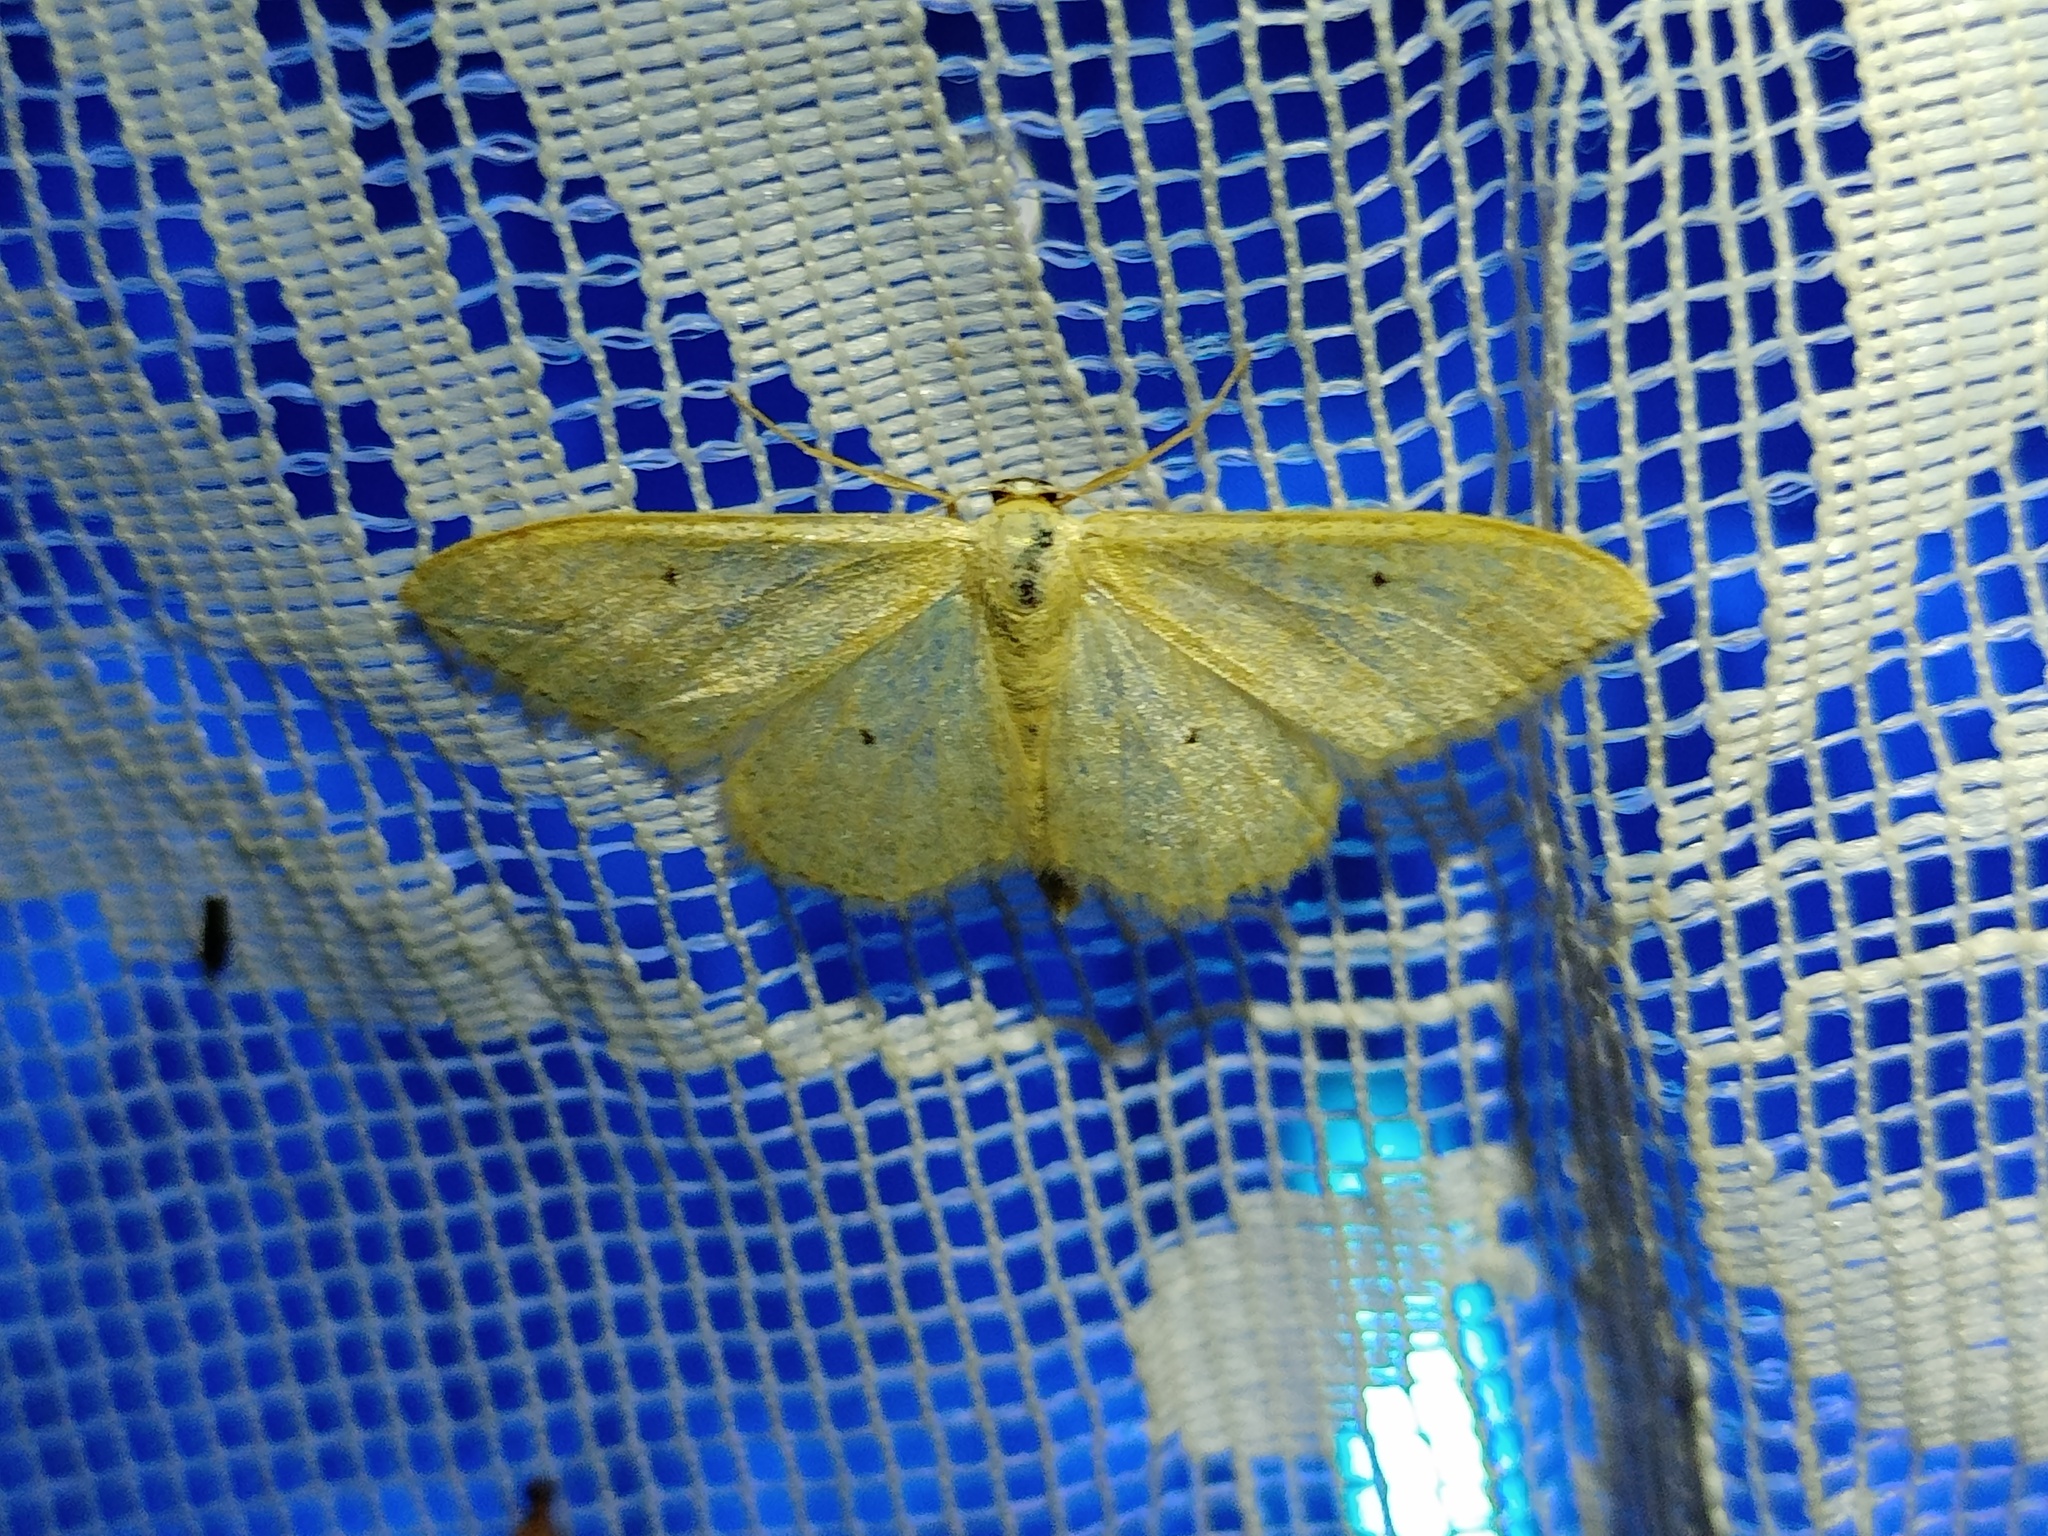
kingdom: Animalia
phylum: Arthropoda
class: Insecta
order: Lepidoptera
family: Geometridae
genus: Idaea
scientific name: Idaea straminata
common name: Plain wave
